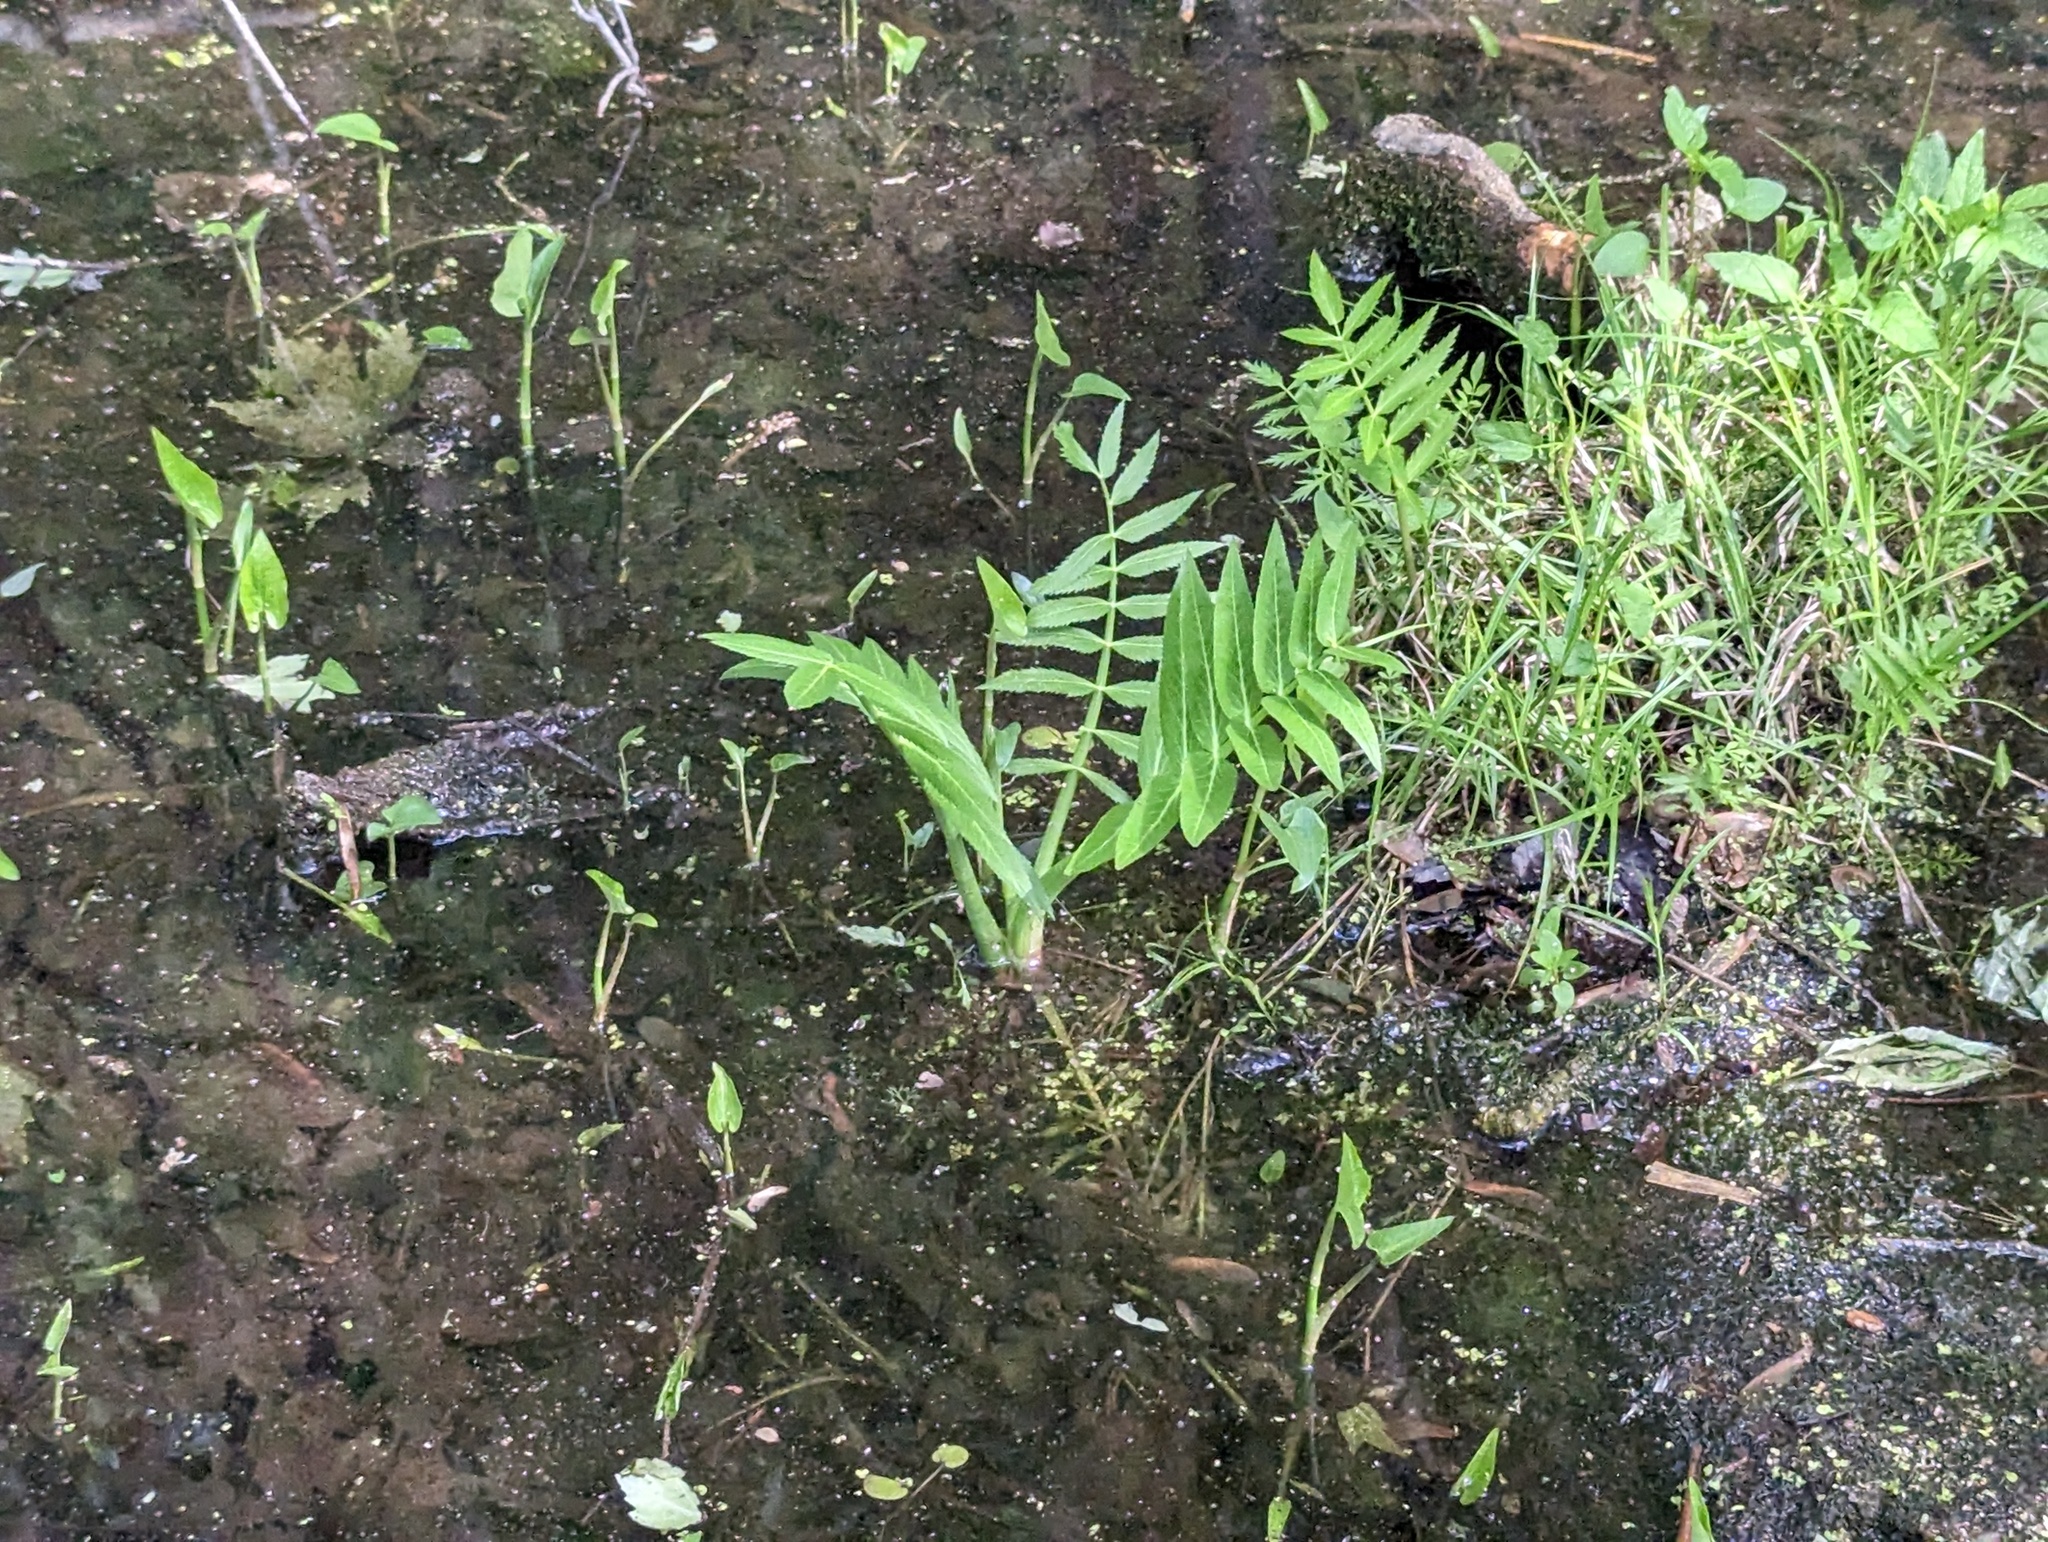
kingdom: Plantae
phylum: Tracheophyta
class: Magnoliopsida
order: Apiales
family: Apiaceae
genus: Sium
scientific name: Sium suave
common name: Hemlock water-parsnip
